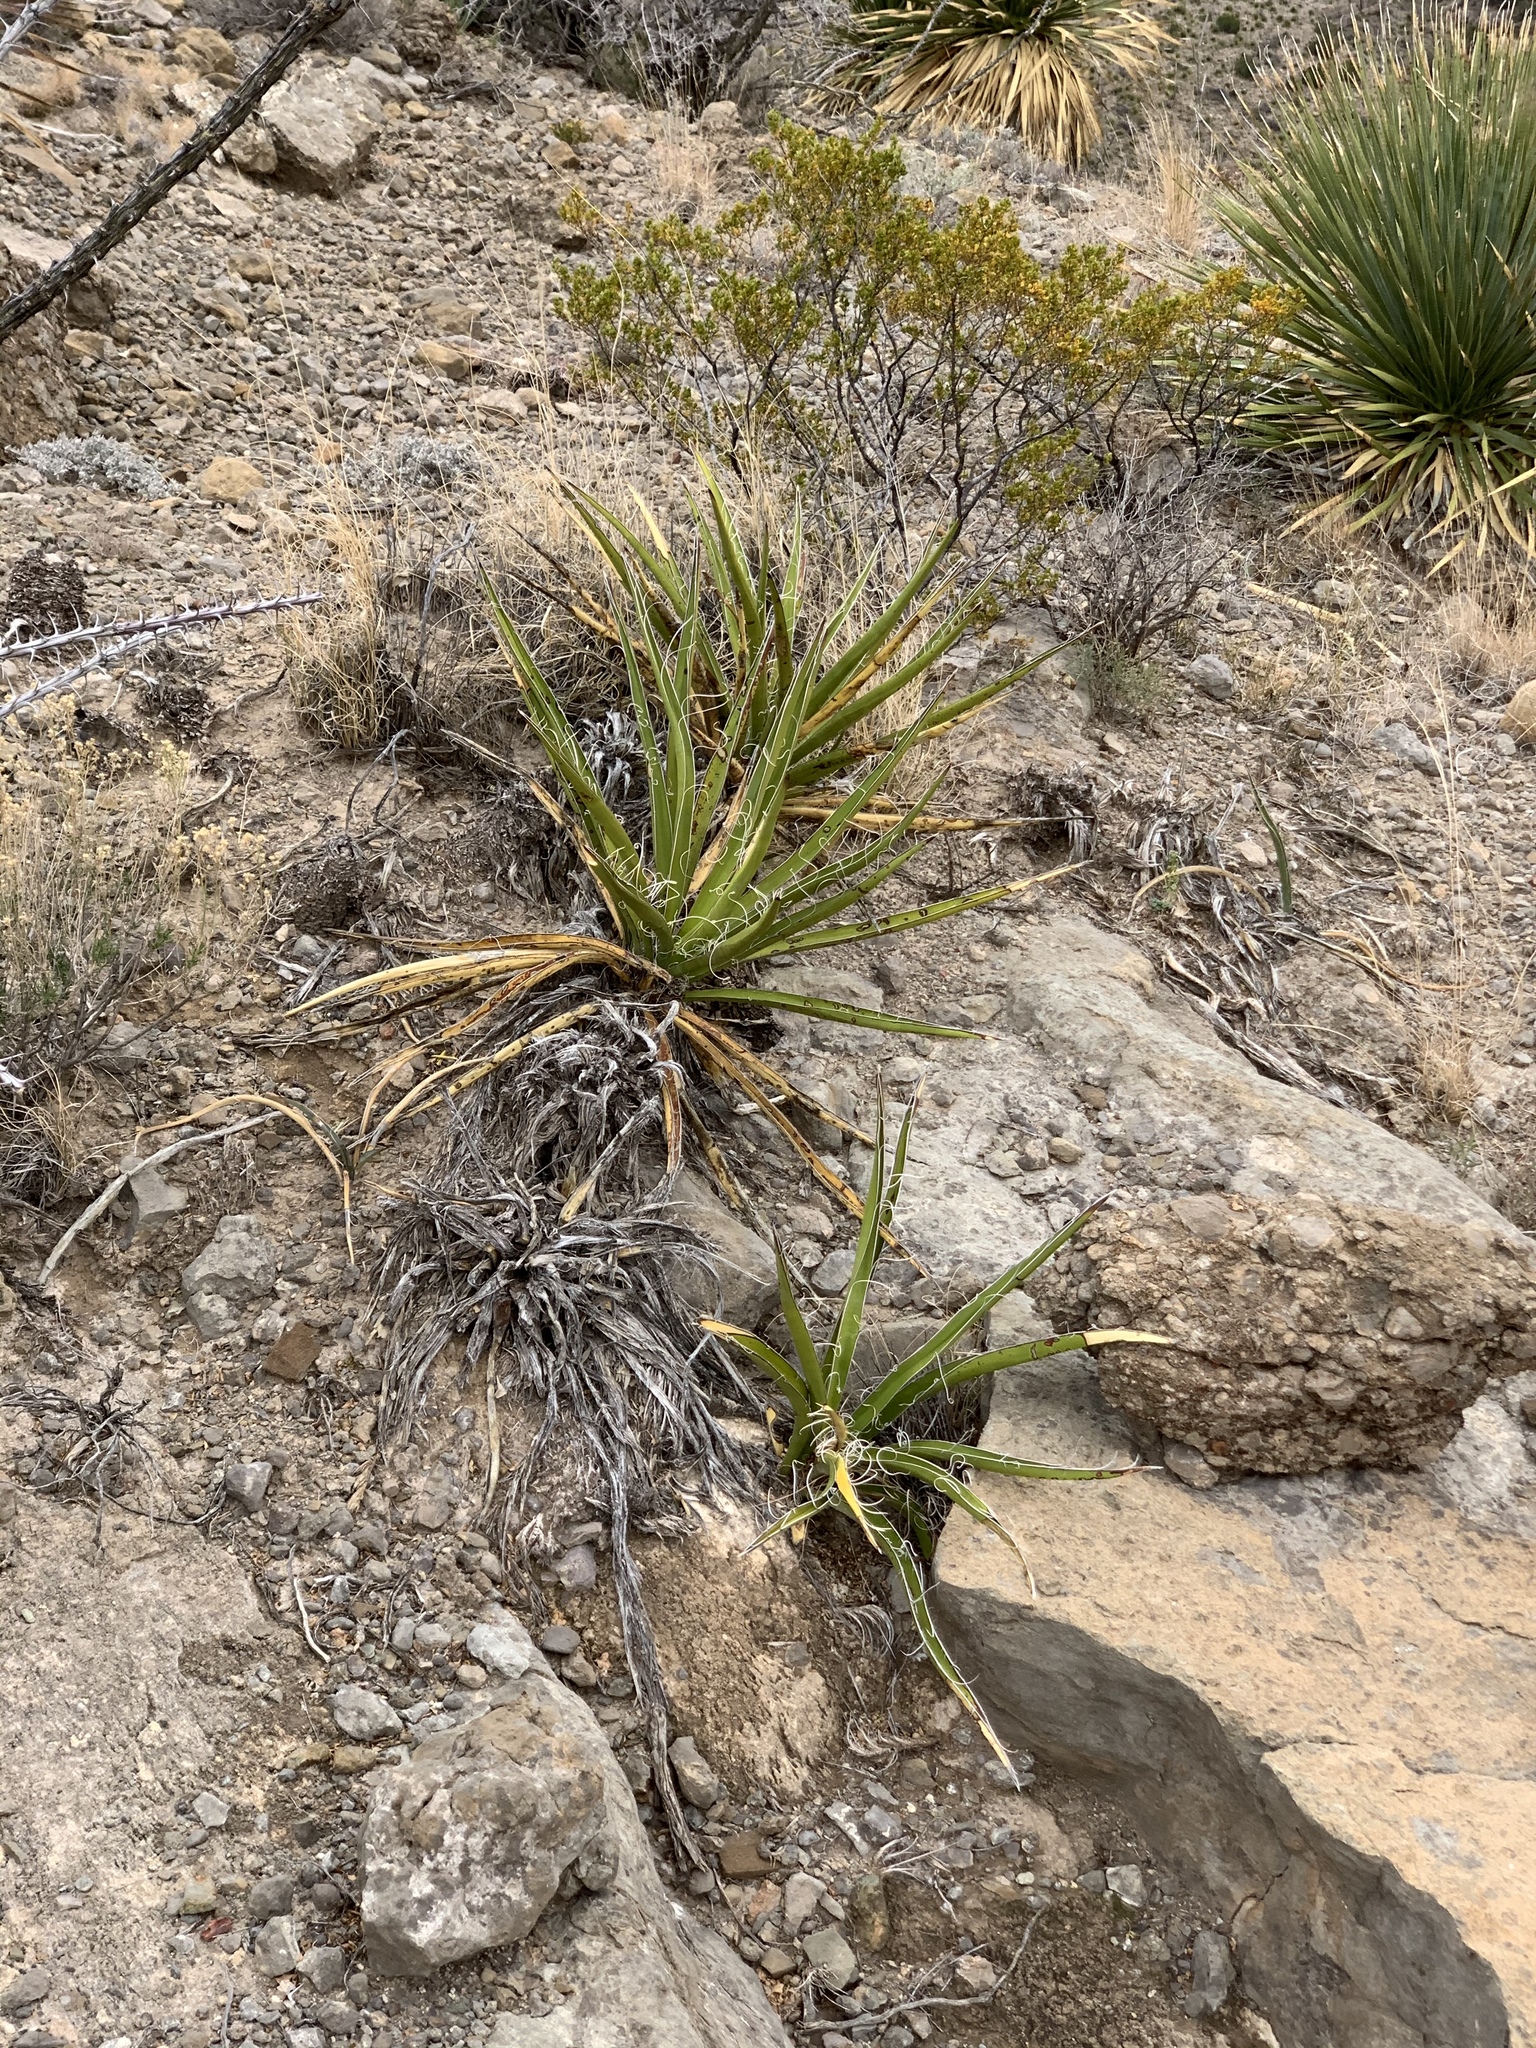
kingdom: Plantae
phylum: Tracheophyta
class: Liliopsida
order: Asparagales
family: Asparagaceae
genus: Yucca
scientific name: Yucca baccata
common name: Banana yucca
